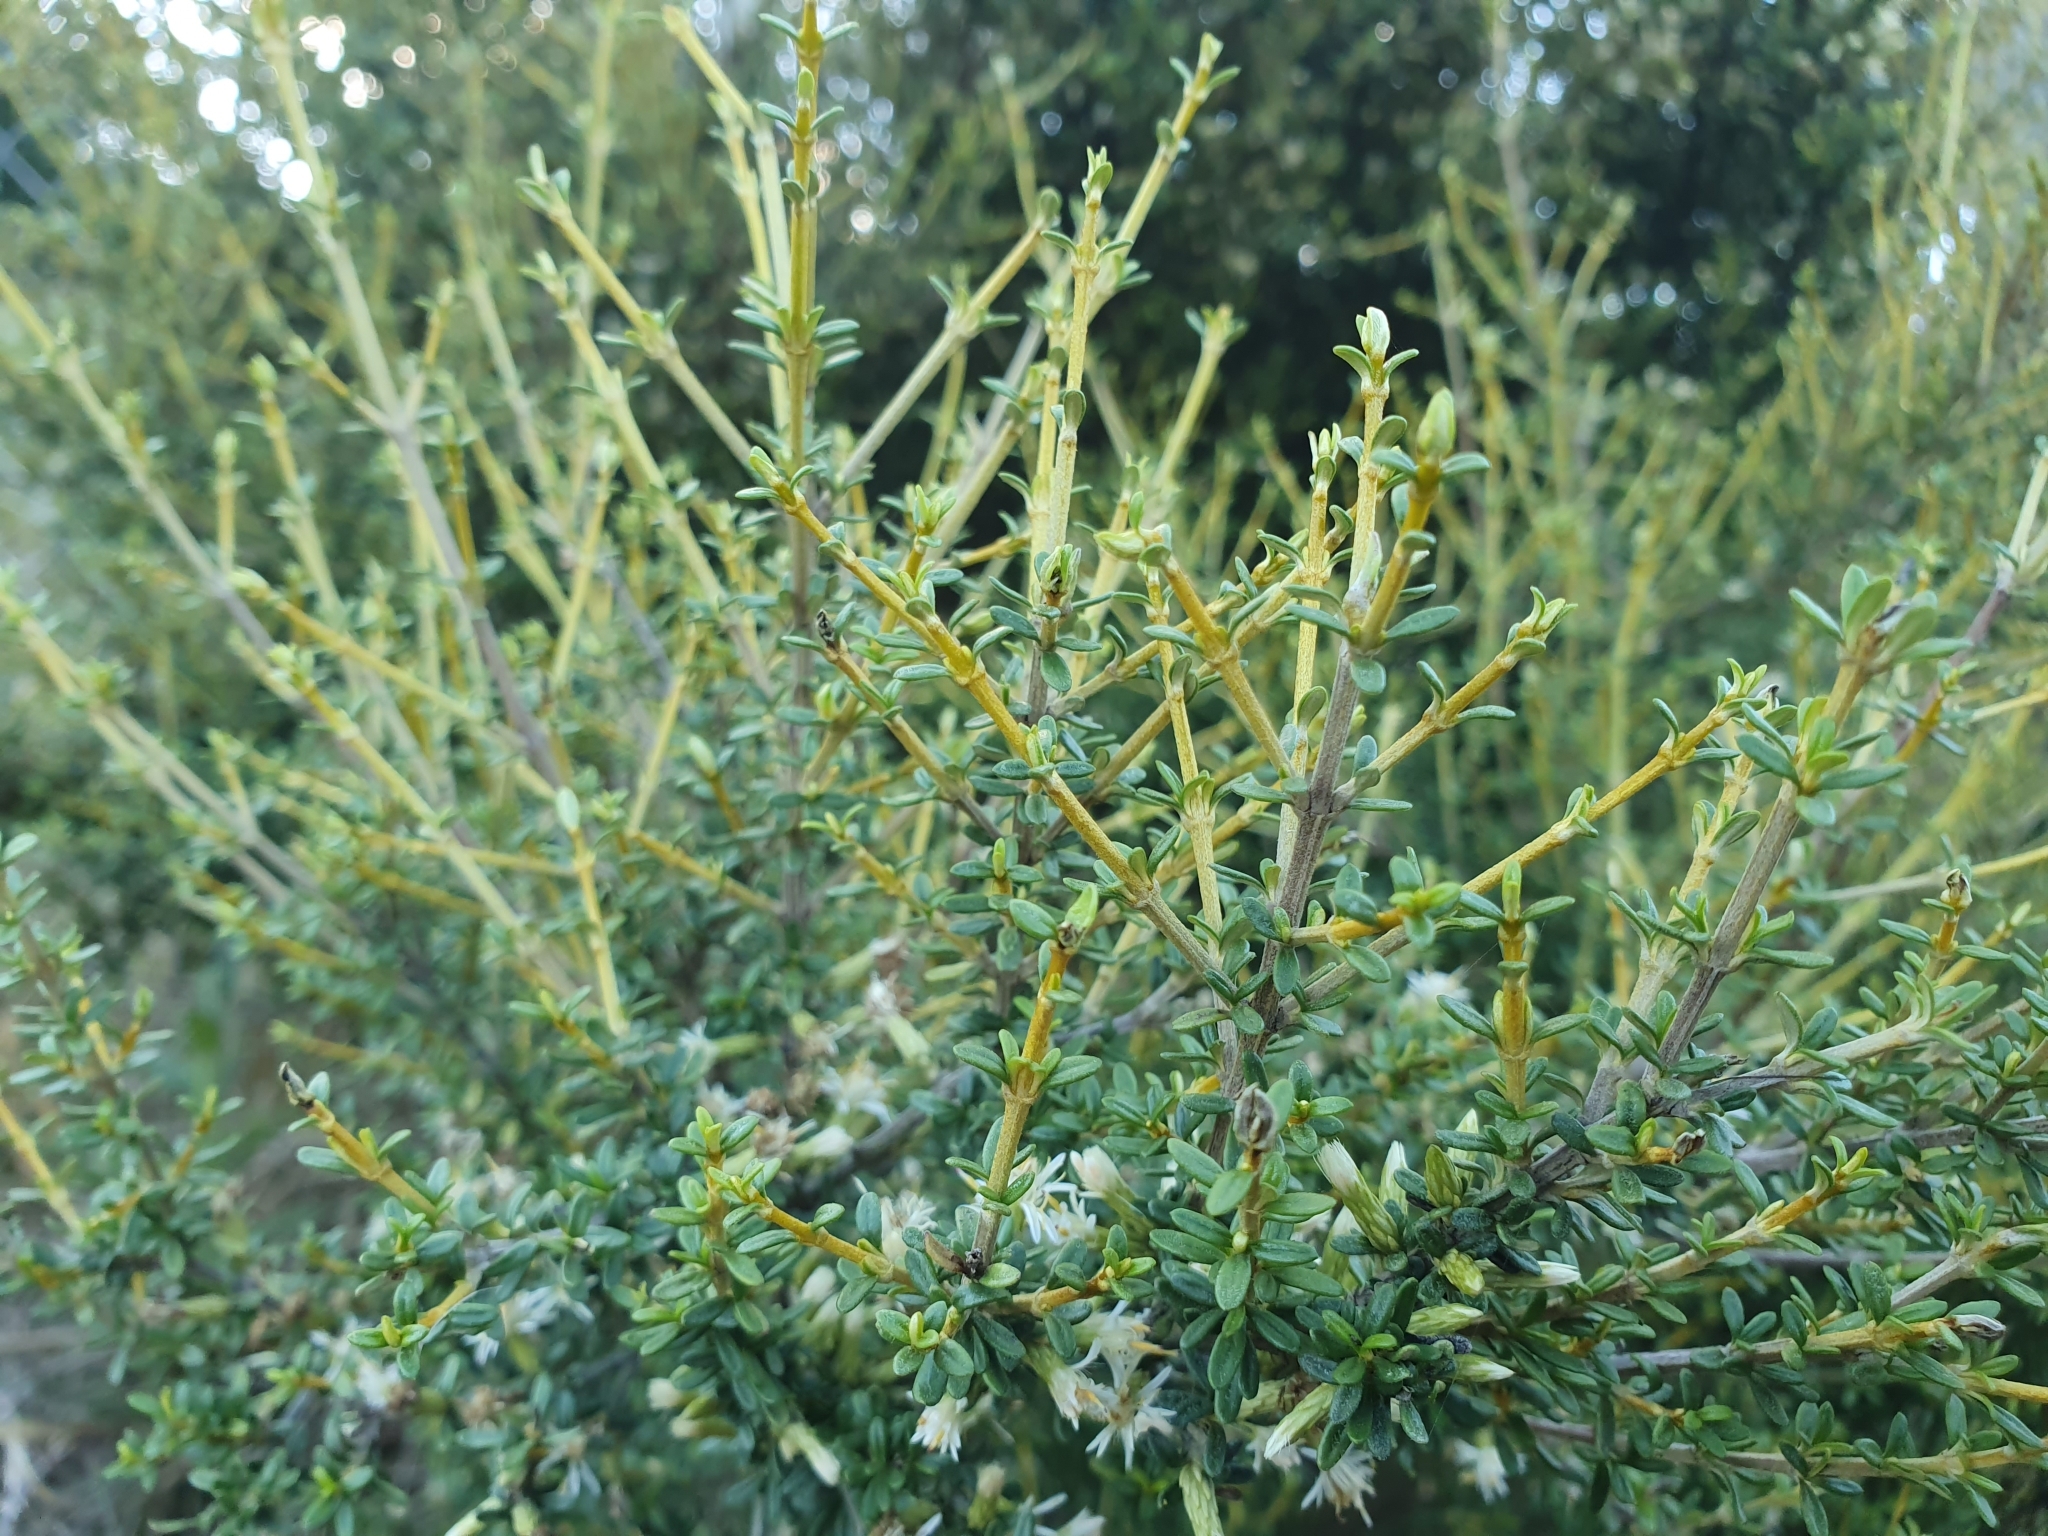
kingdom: Plantae
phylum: Tracheophyta
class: Magnoliopsida
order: Asterales
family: Asteraceae
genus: Olearia
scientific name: Olearia solandri
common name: Coastal daisybush
